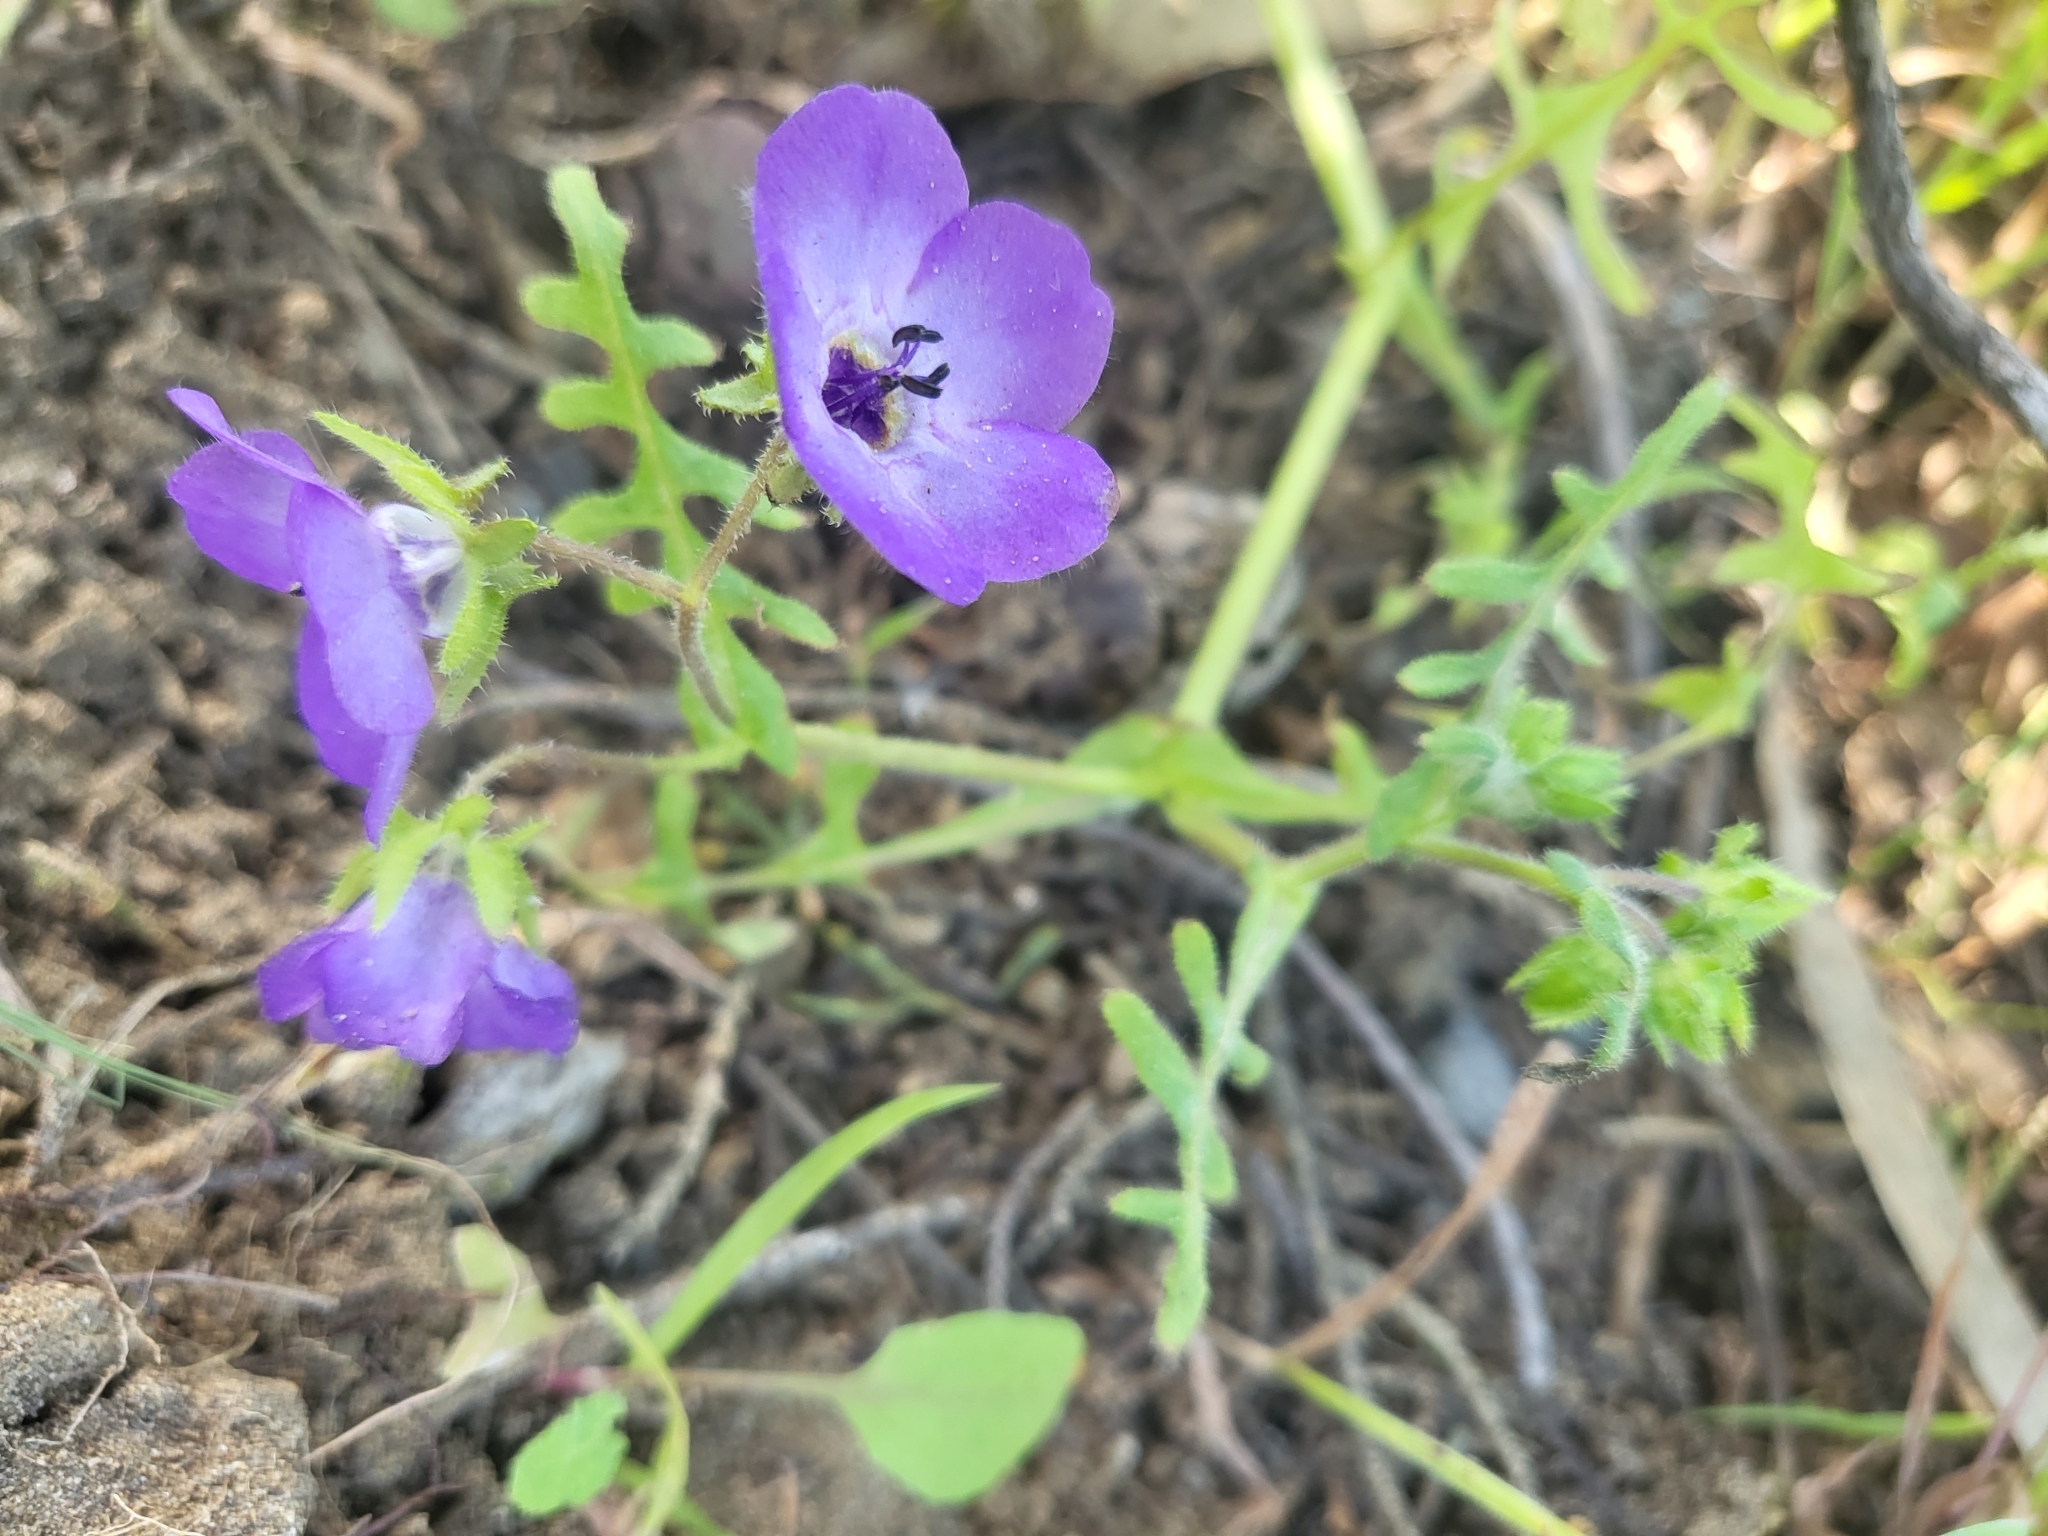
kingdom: Plantae
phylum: Tracheophyta
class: Magnoliopsida
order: Boraginales
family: Hydrophyllaceae
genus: Pholistoma
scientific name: Pholistoma auritum
